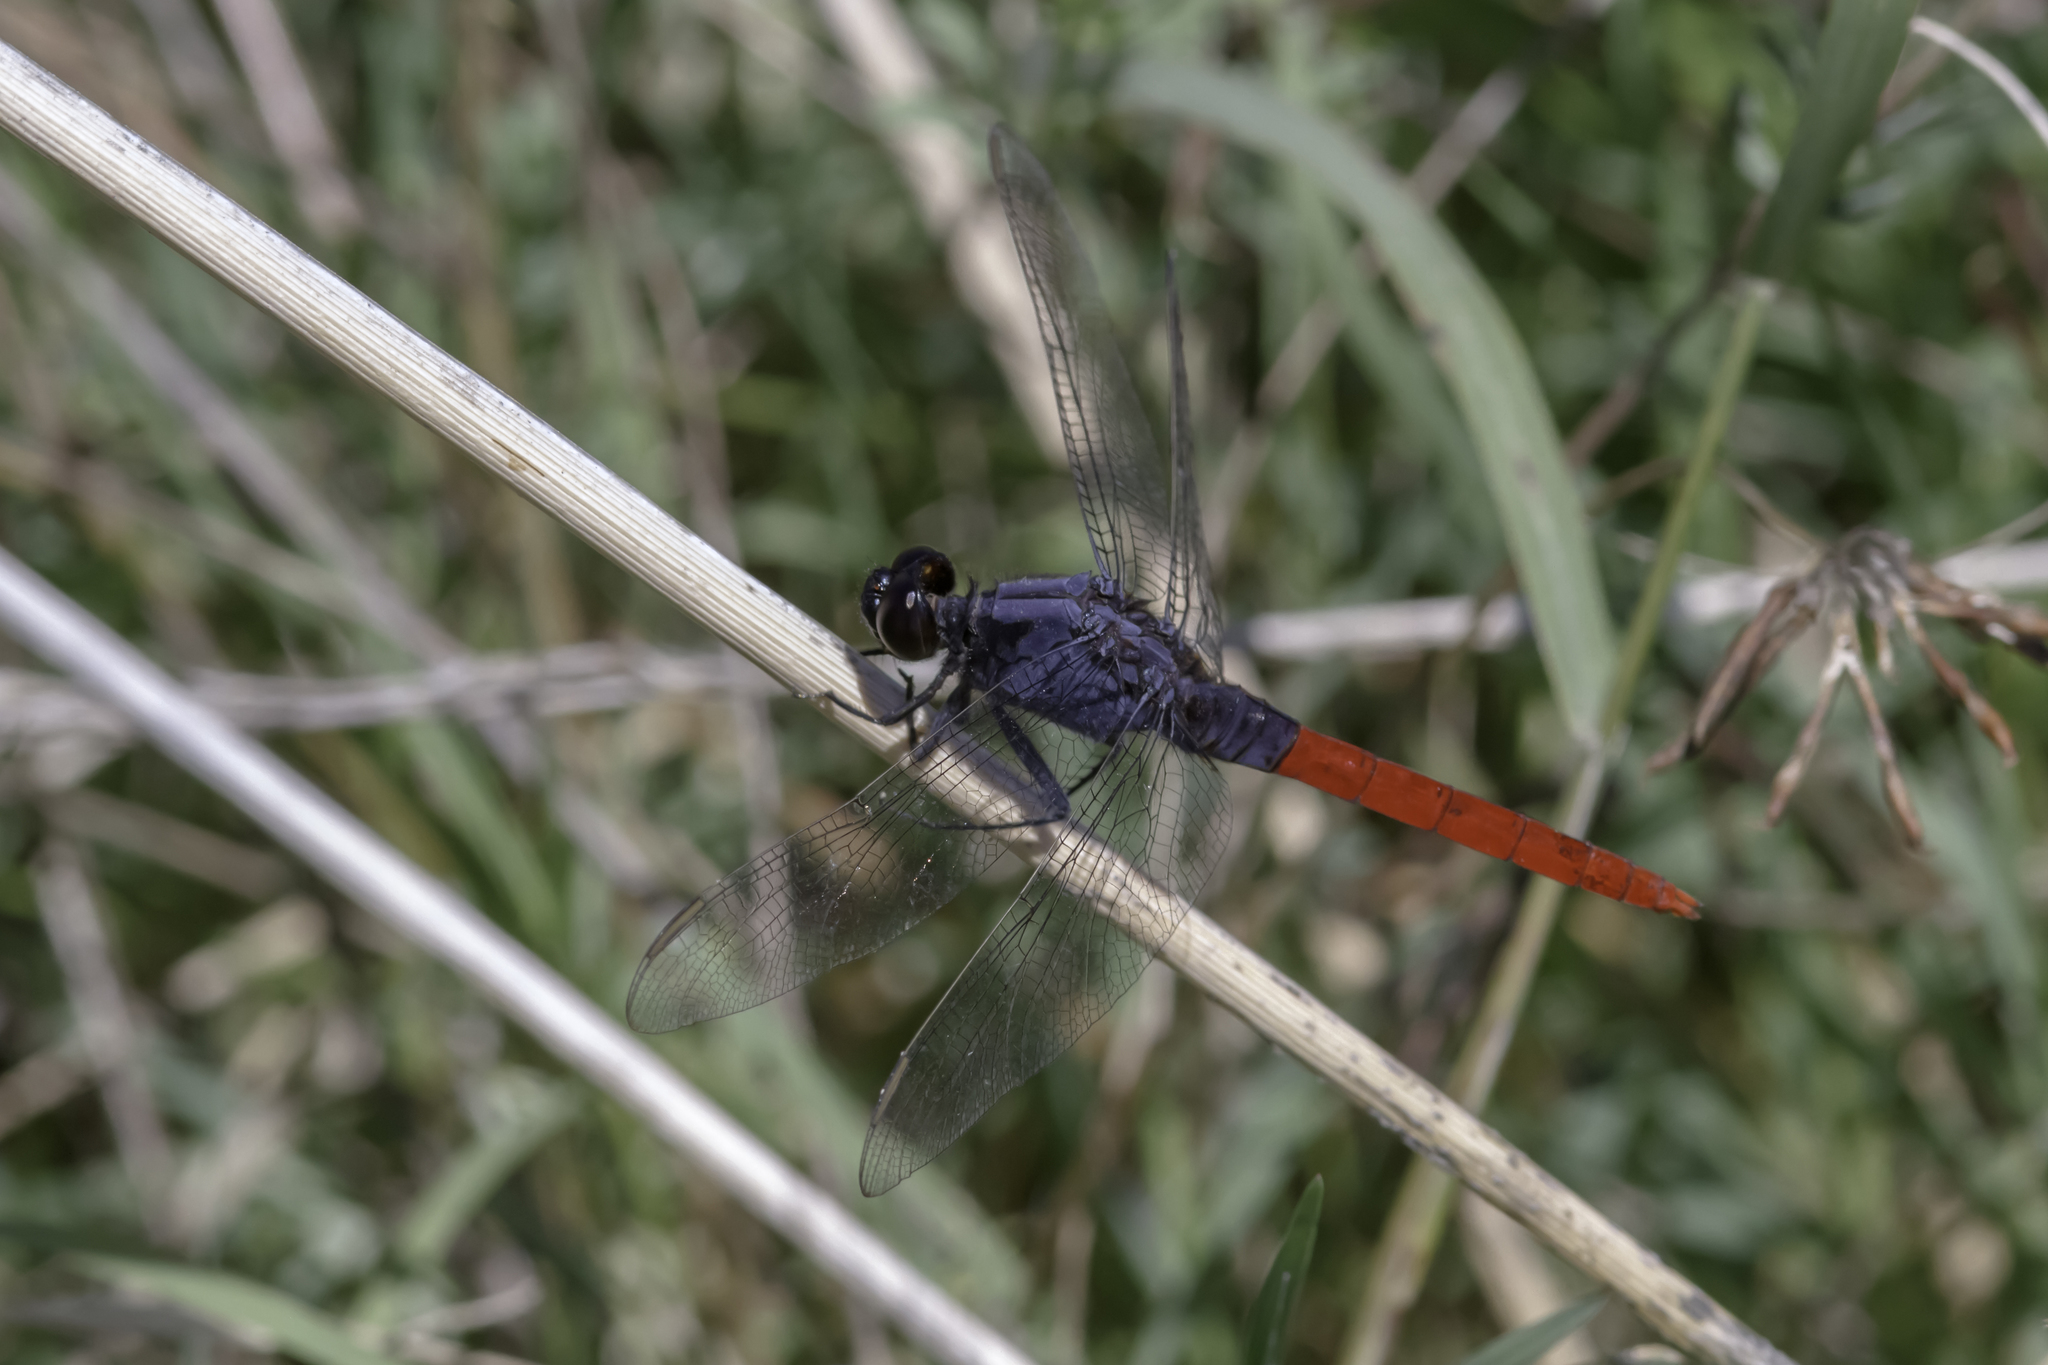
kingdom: Animalia
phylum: Arthropoda
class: Insecta
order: Odonata
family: Libellulidae
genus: Erythemis
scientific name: Erythemis peruviana
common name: Flame-tailed pondhawk
